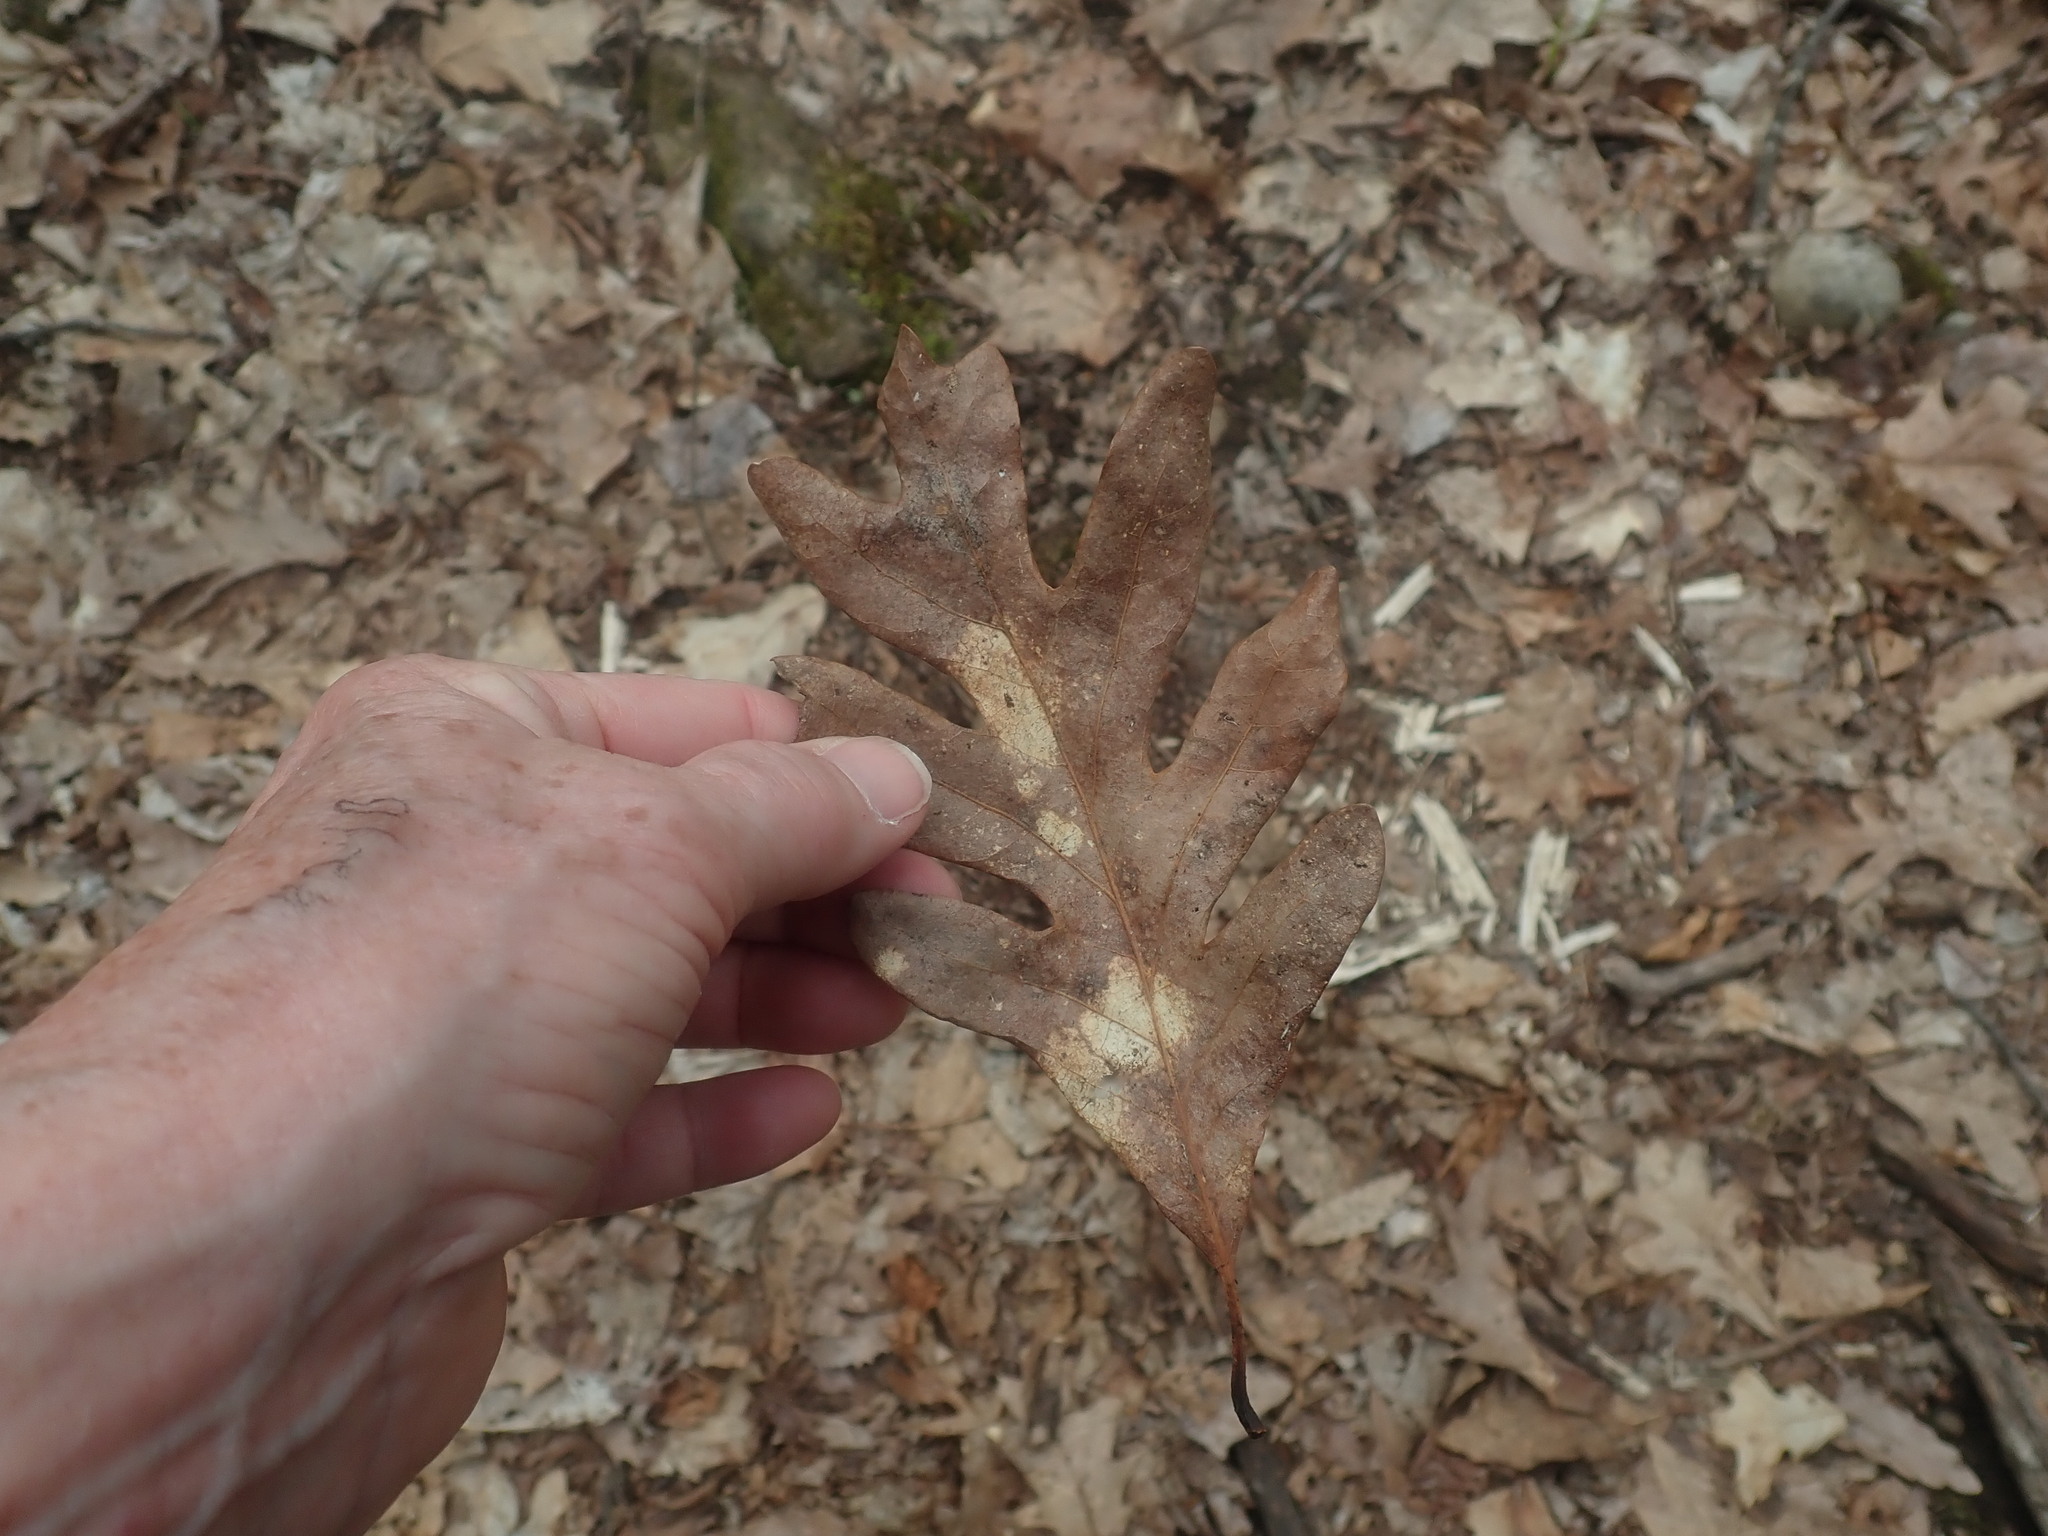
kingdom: Plantae
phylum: Tracheophyta
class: Magnoliopsida
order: Fagales
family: Fagaceae
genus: Quercus
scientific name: Quercus alba
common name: White oak
